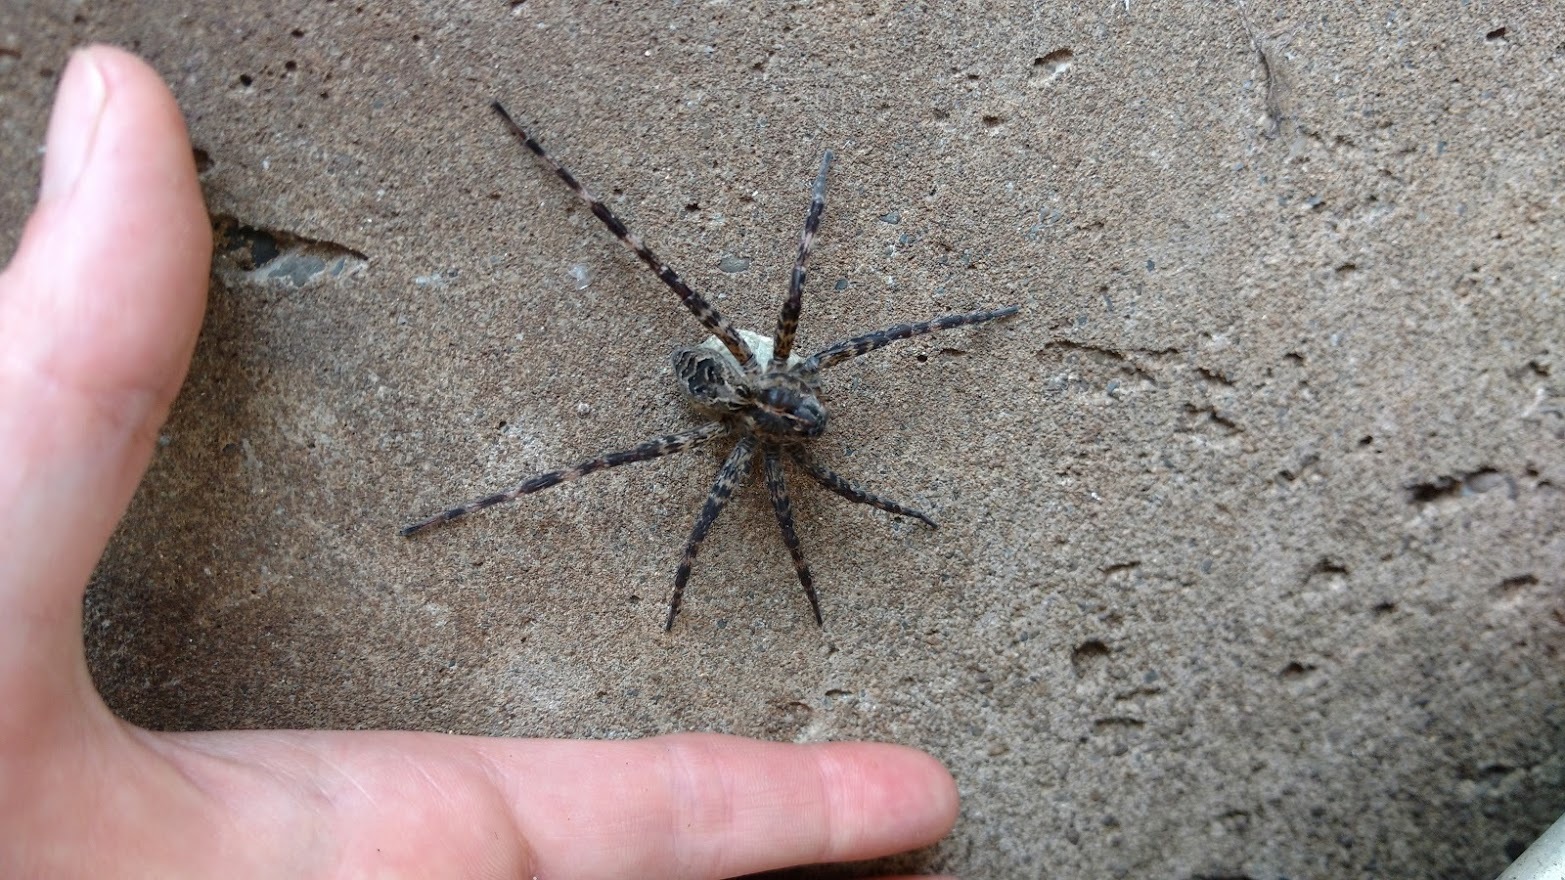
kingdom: Animalia
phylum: Arthropoda
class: Arachnida
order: Araneae
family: Pisauridae
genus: Dolomedes
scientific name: Dolomedes scriptus
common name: Striped fishing spider
